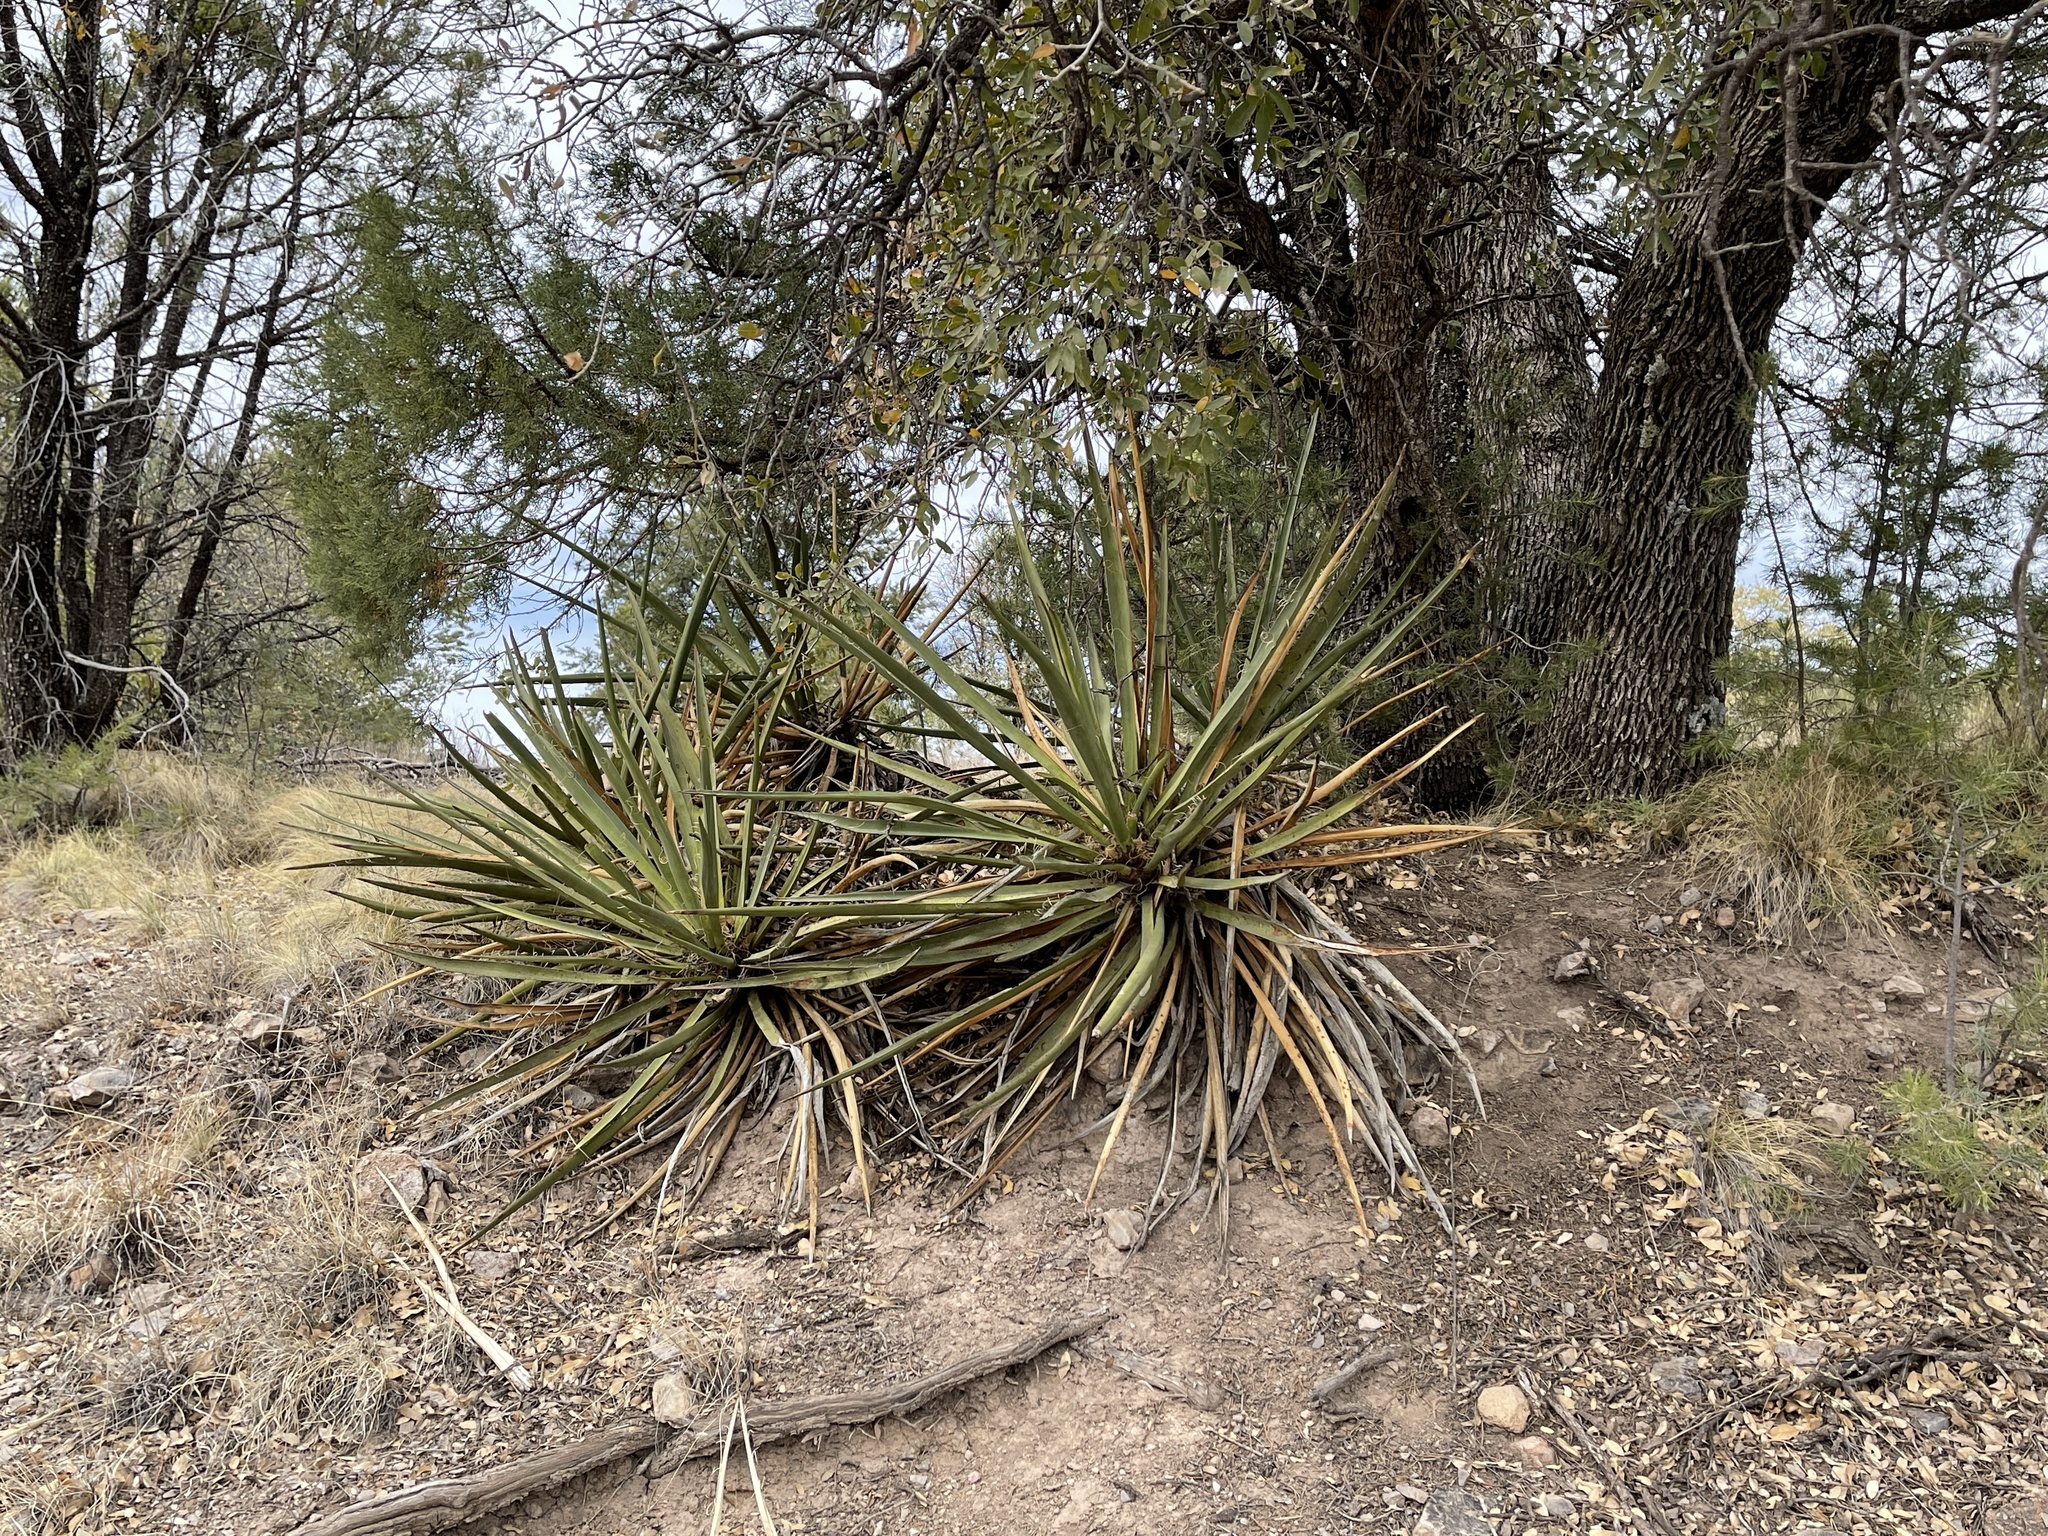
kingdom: Plantae
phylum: Tracheophyta
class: Liliopsida
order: Asparagales
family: Asparagaceae
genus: Yucca
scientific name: Yucca baccata
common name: Banana yucca
